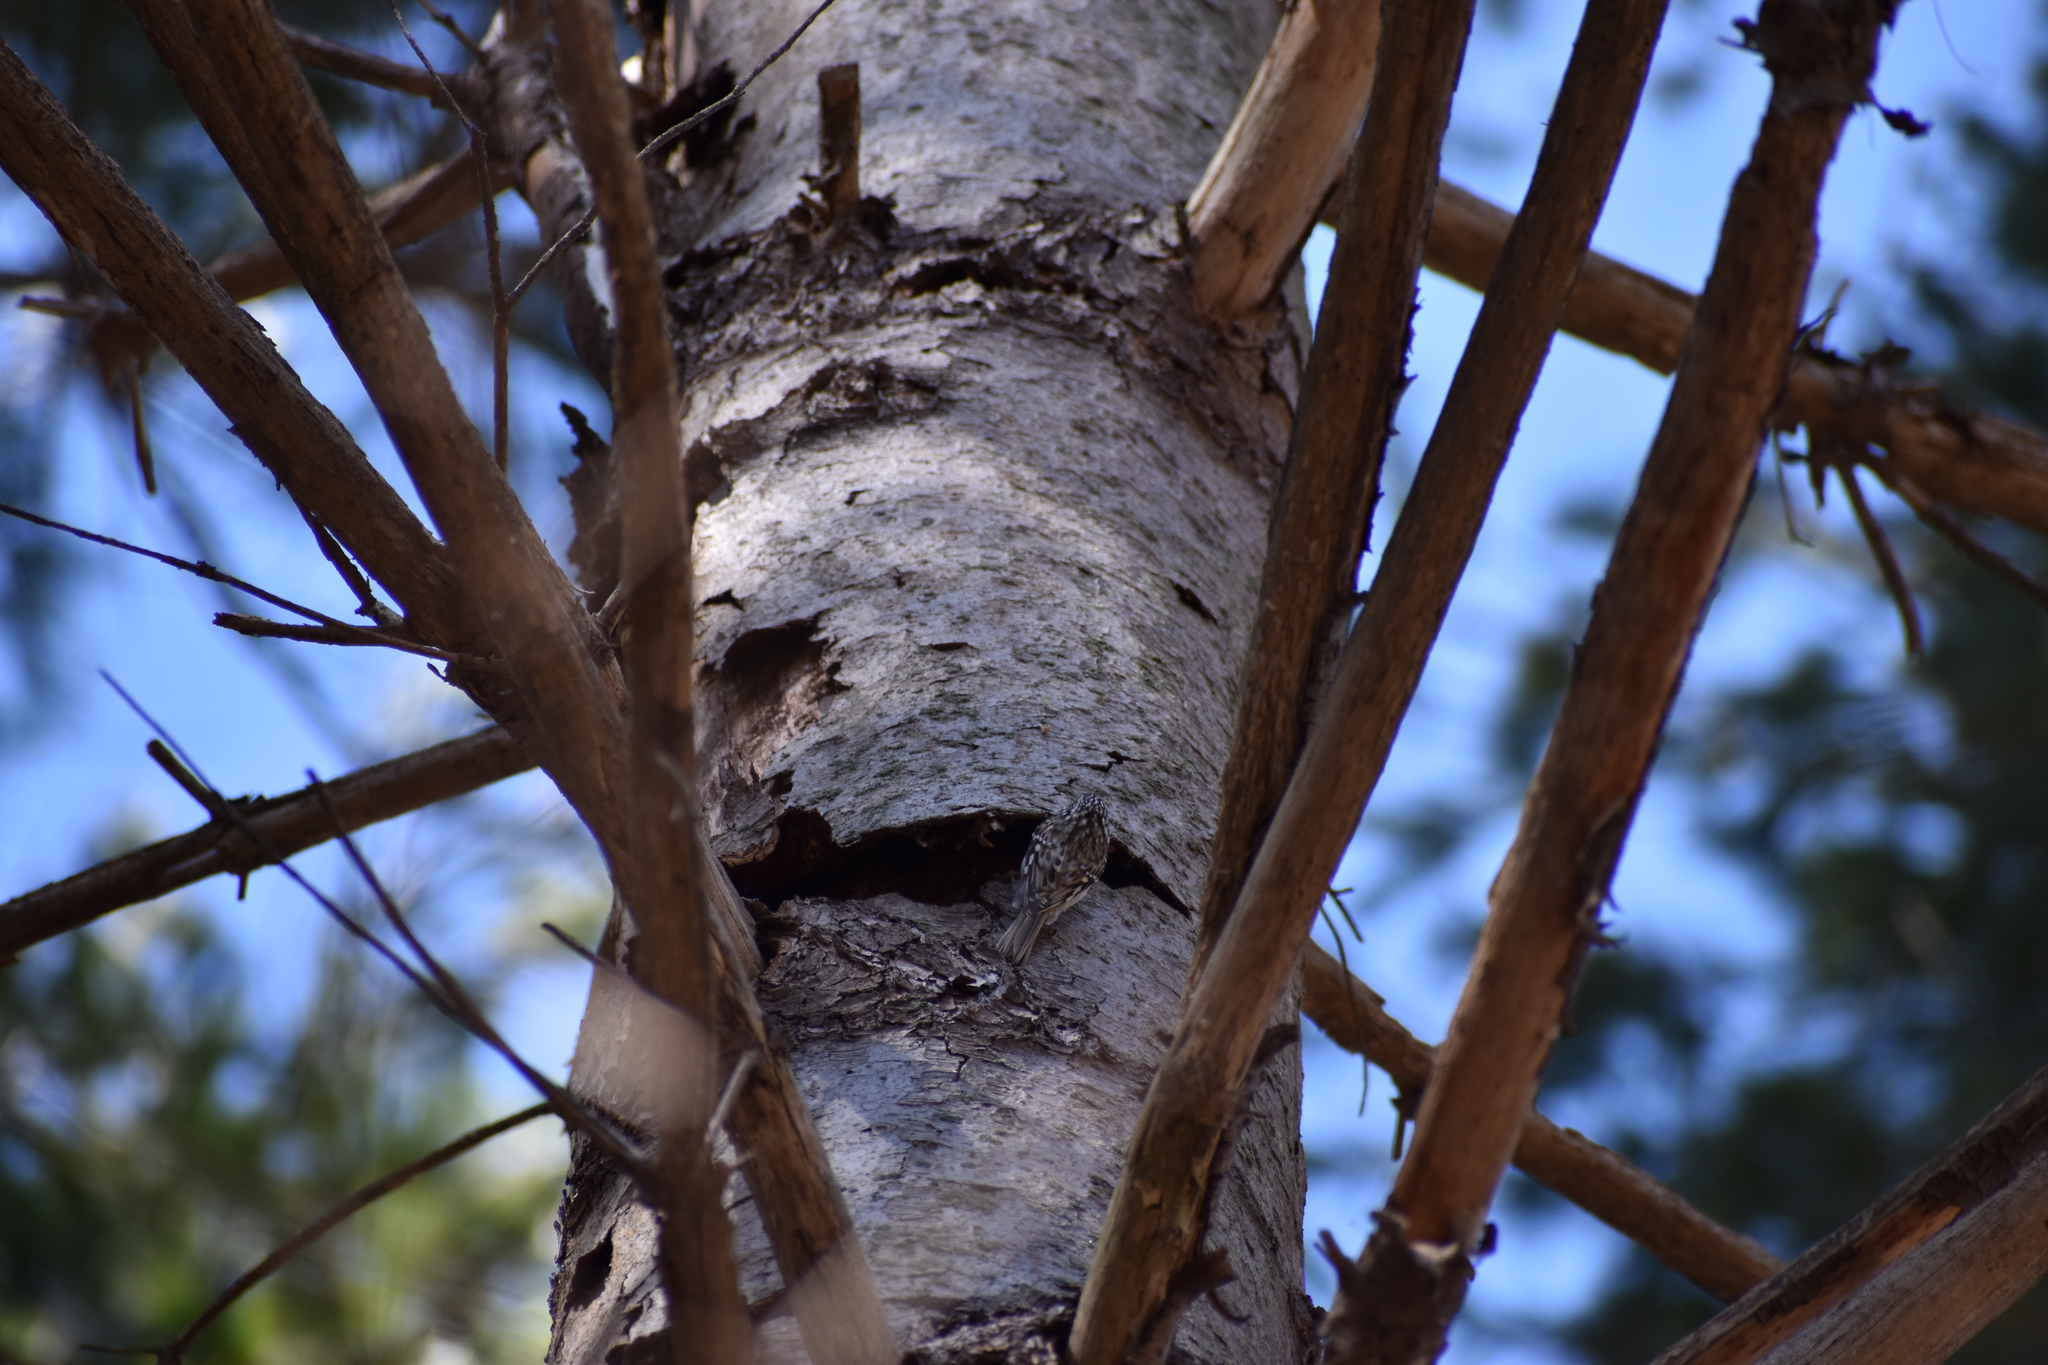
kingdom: Animalia
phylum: Chordata
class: Aves
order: Passeriformes
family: Certhiidae
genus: Certhia
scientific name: Certhia americana
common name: Brown creeper
